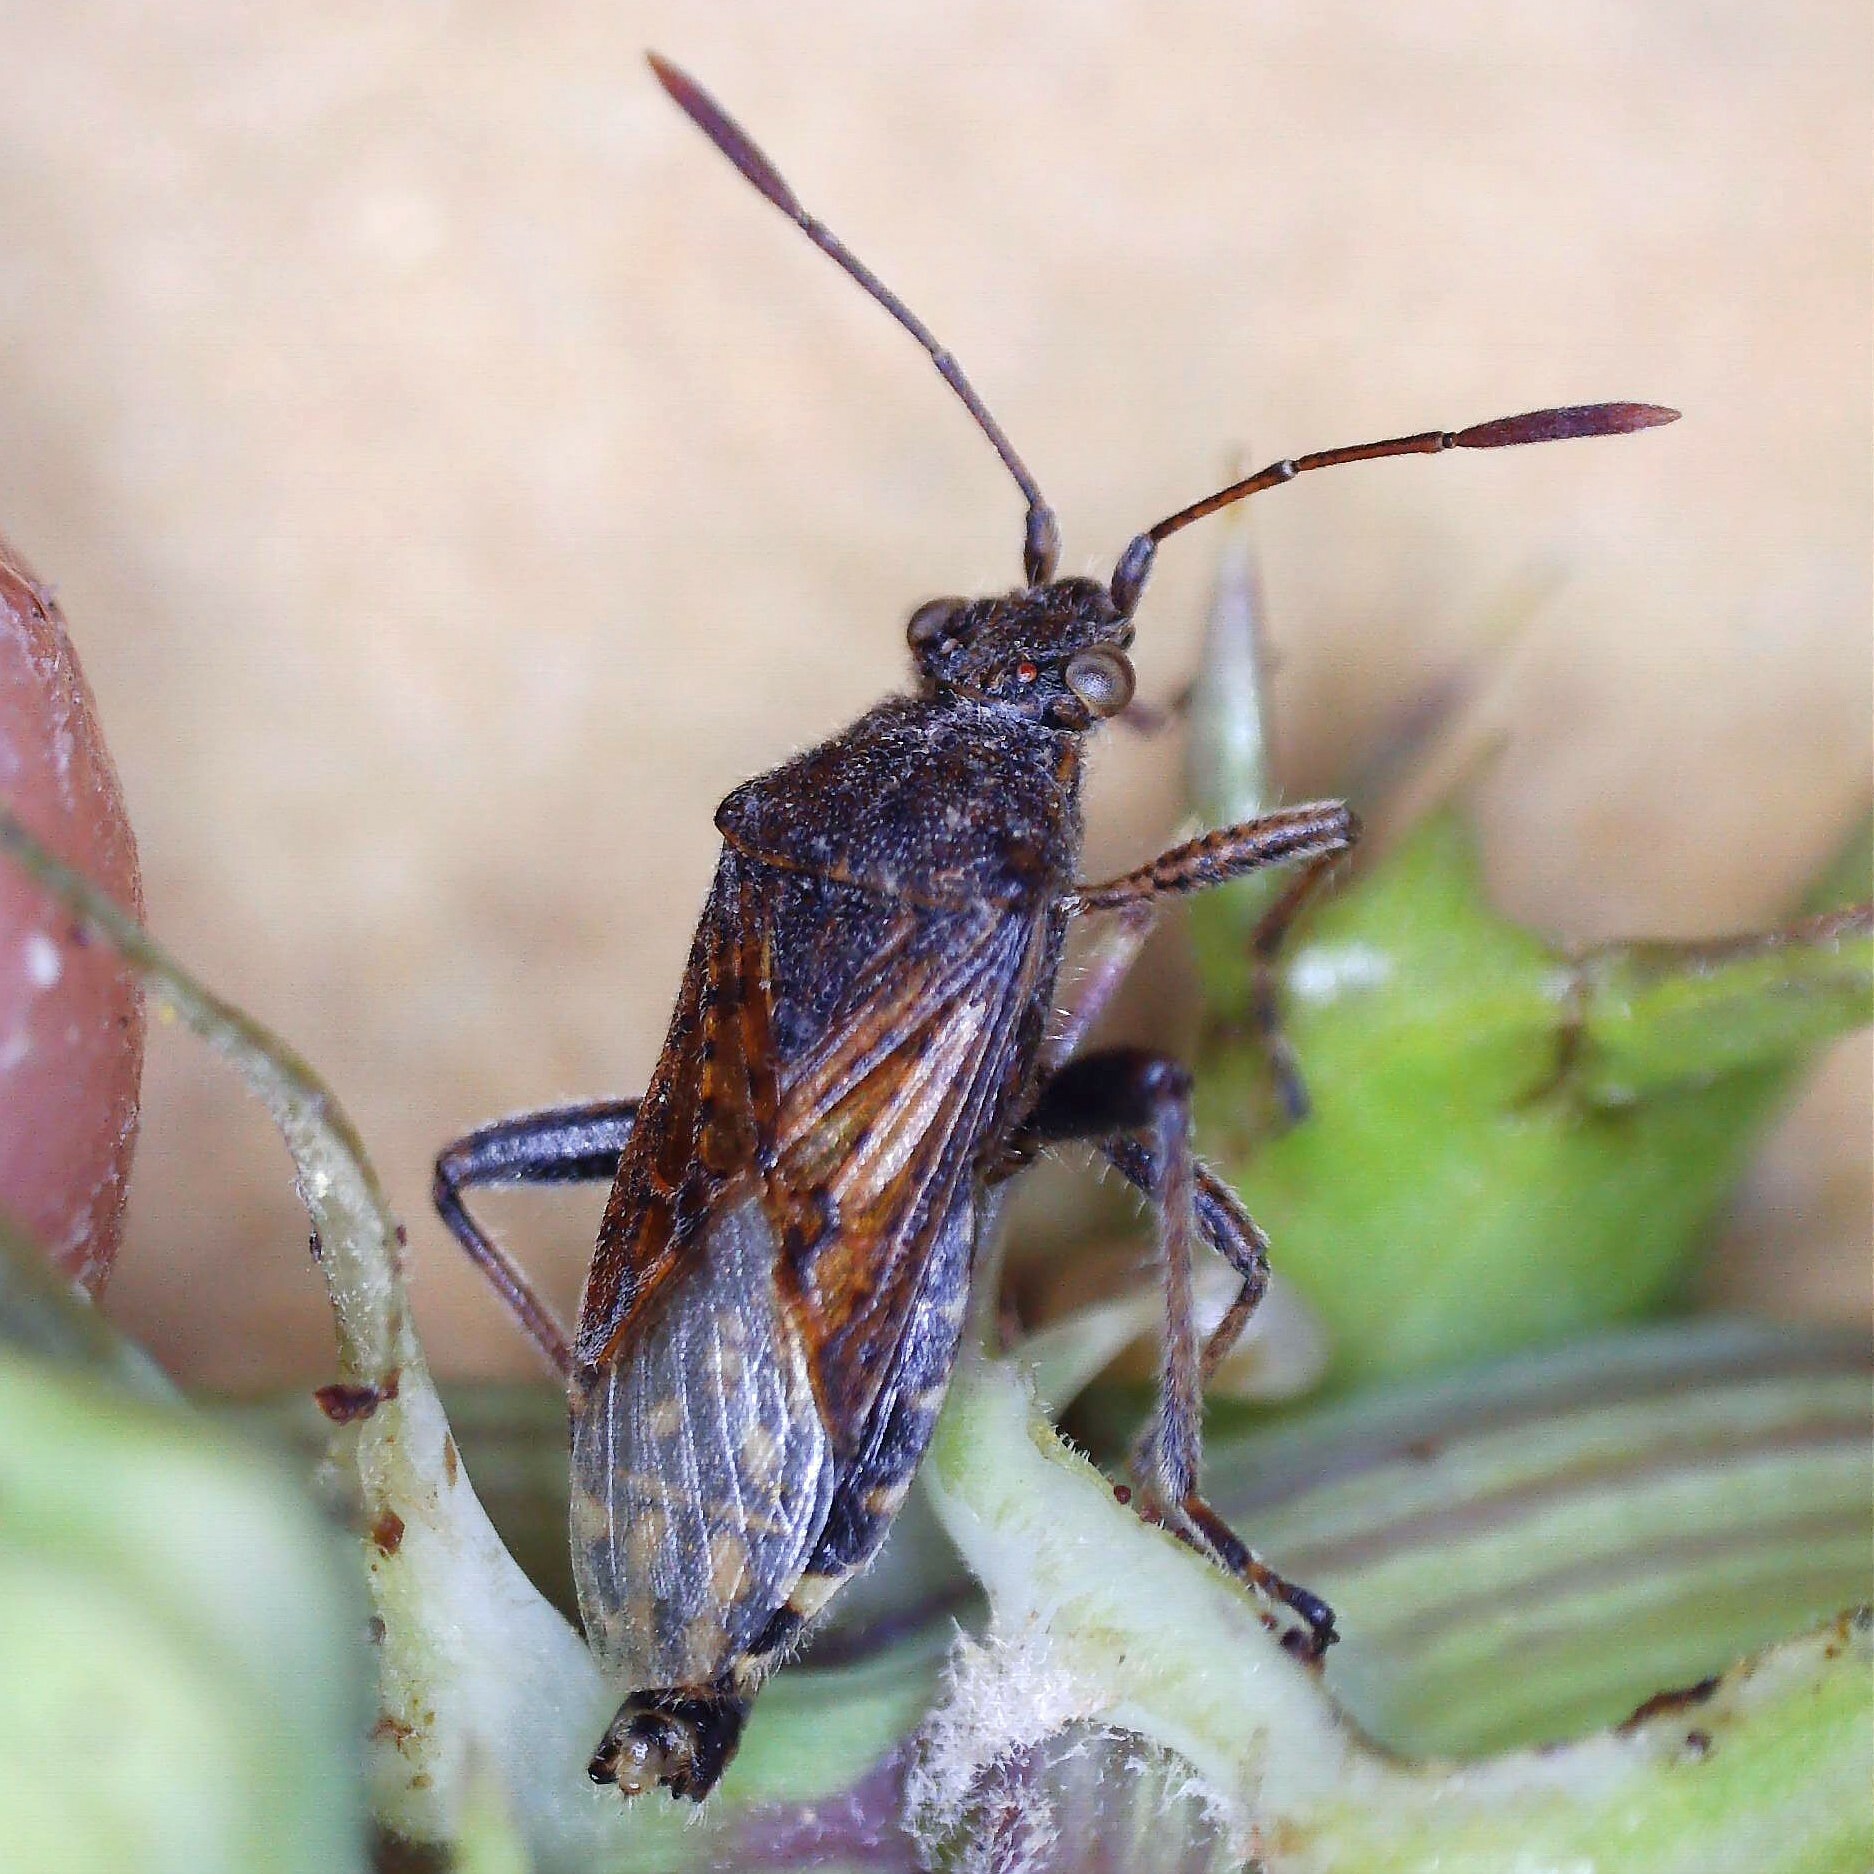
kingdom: Animalia
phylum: Arthropoda
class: Insecta
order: Hemiptera
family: Rhopalidae
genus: Stictopleurus
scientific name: Stictopleurus punctatonervosus
